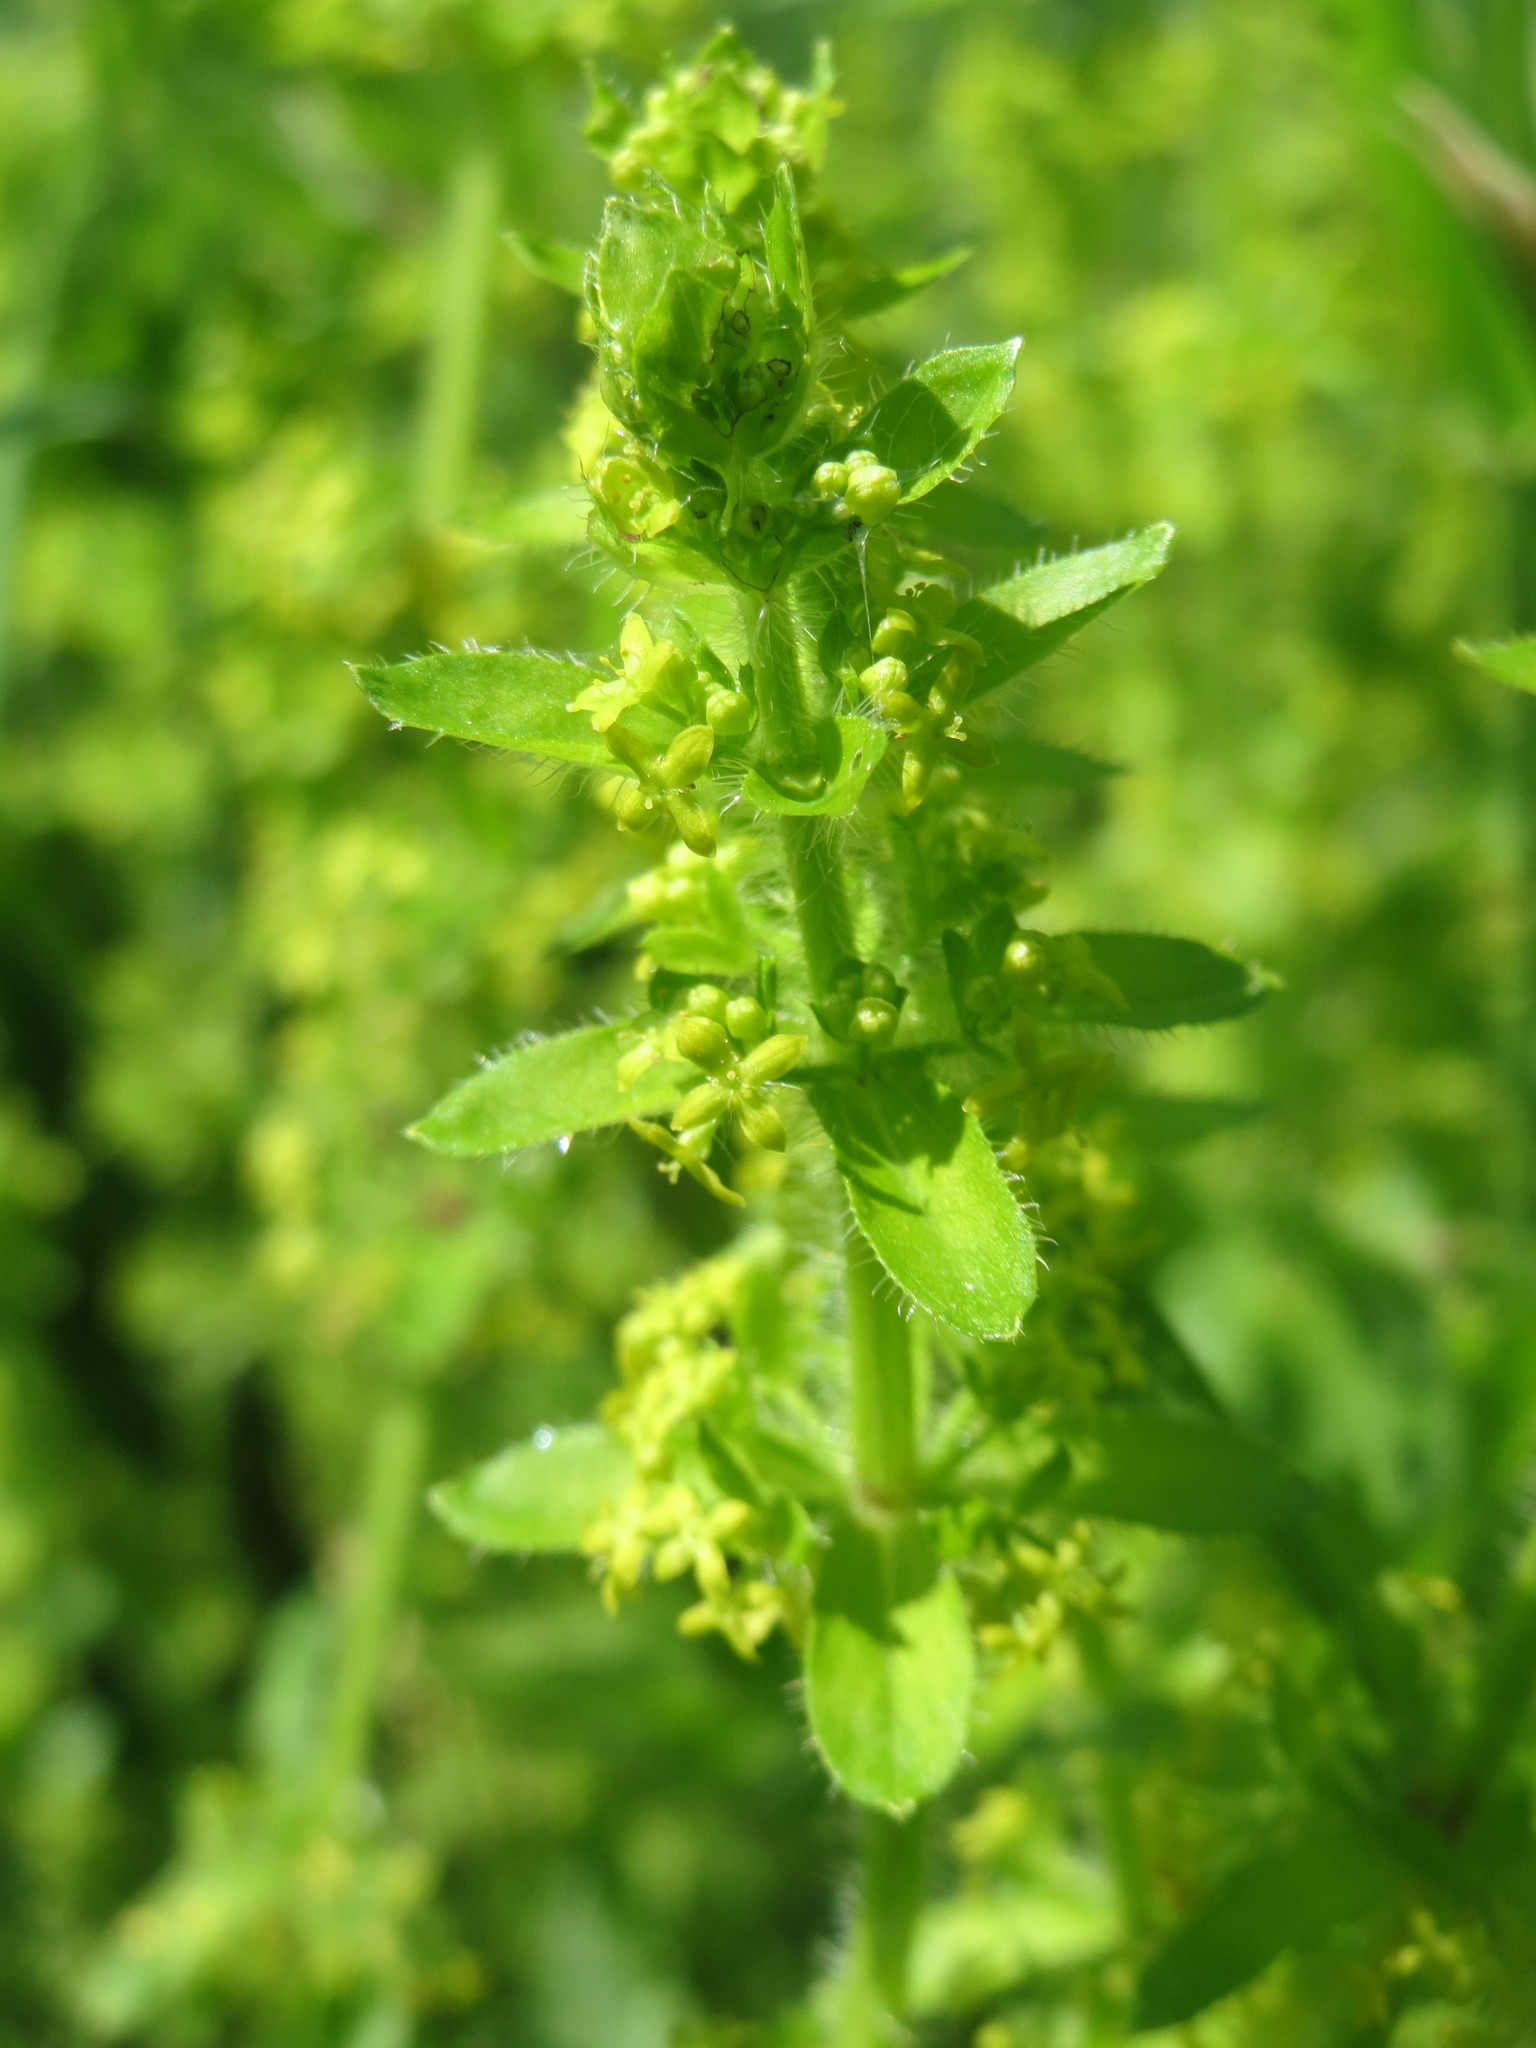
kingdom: Plantae
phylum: Tracheophyta
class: Magnoliopsida
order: Gentianales
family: Rubiaceae
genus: Cruciata
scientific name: Cruciata laevipes
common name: Crosswort
